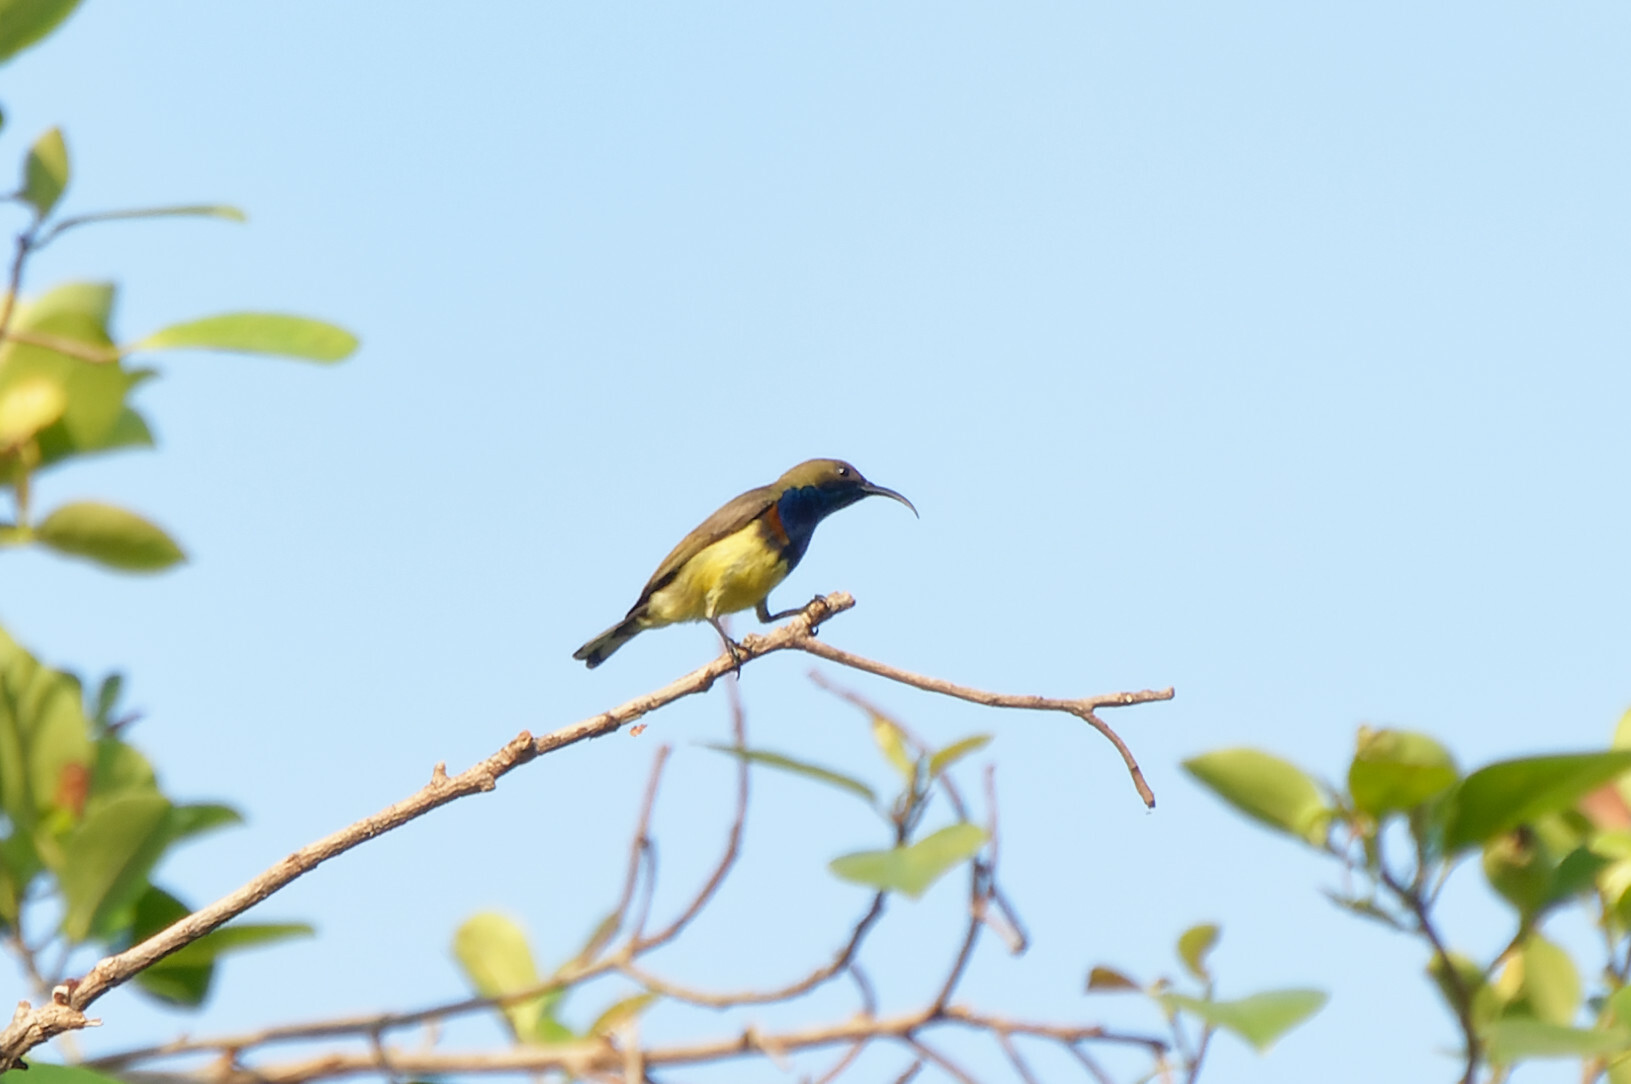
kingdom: Animalia
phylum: Chordata
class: Aves
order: Passeriformes
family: Nectariniidae
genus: Cinnyris
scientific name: Cinnyris
